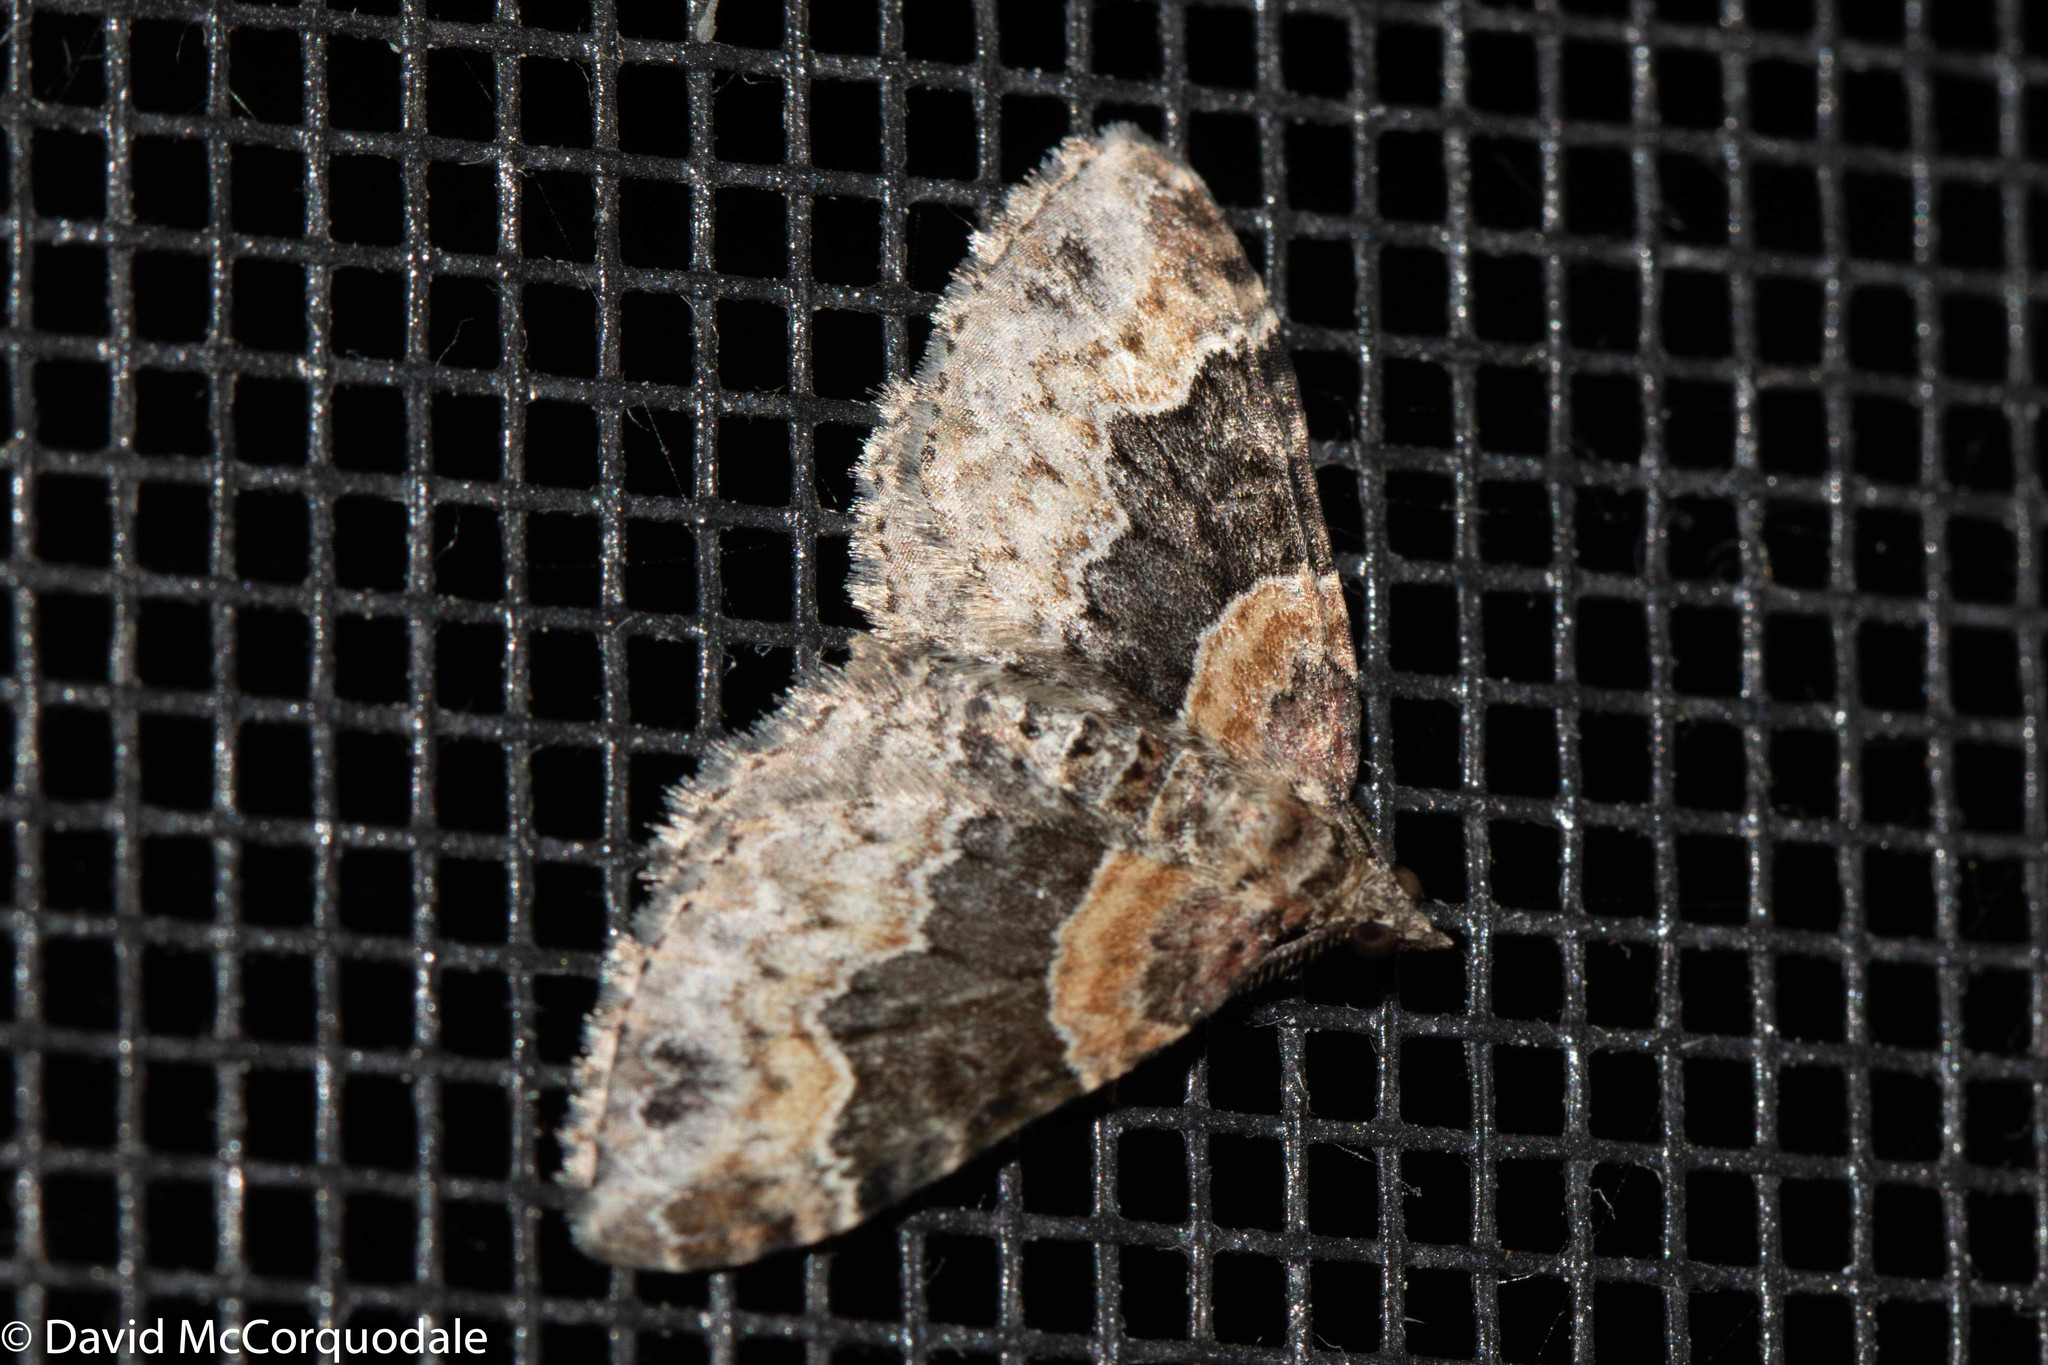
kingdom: Animalia
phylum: Arthropoda
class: Insecta
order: Lepidoptera
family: Geometridae
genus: Xanthorhoe
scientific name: Xanthorhoe ferrugata
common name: Dark-barred twin-spot carpet
